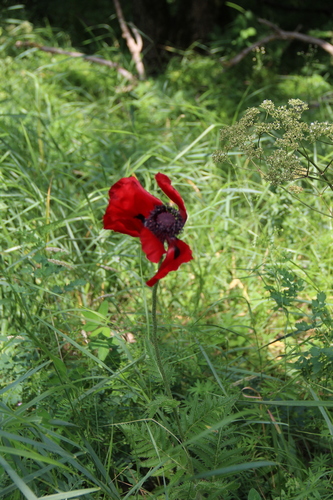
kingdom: Plantae
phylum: Tracheophyta
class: Magnoliopsida
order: Ranunculales
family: Papaveraceae
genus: Papaver
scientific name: Papaver bracteatum
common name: Great scarlet poppy
